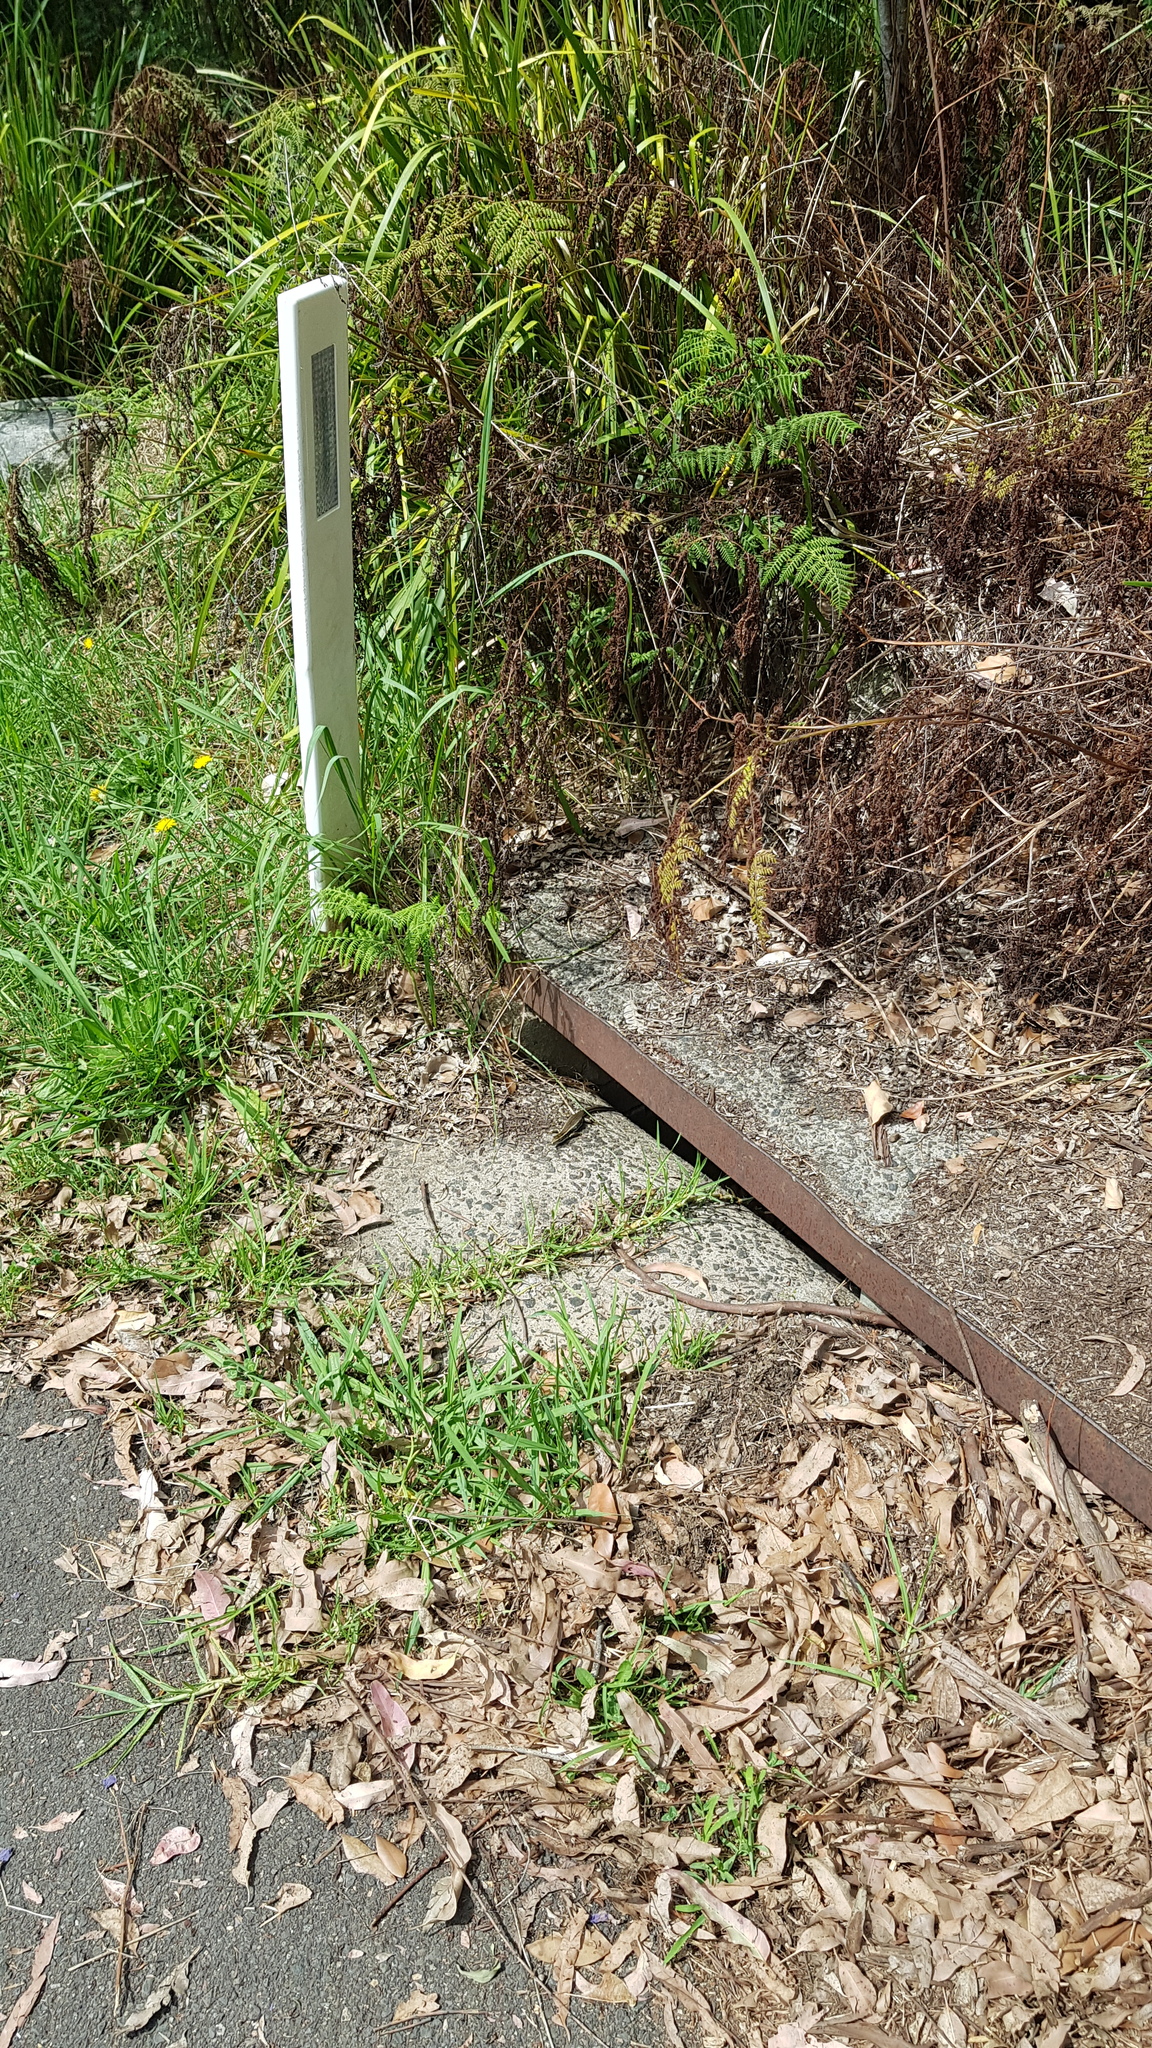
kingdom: Animalia
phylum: Chordata
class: Squamata
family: Scincidae
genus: Eulamprus
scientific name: Eulamprus quoyii
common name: Eastern water skink
